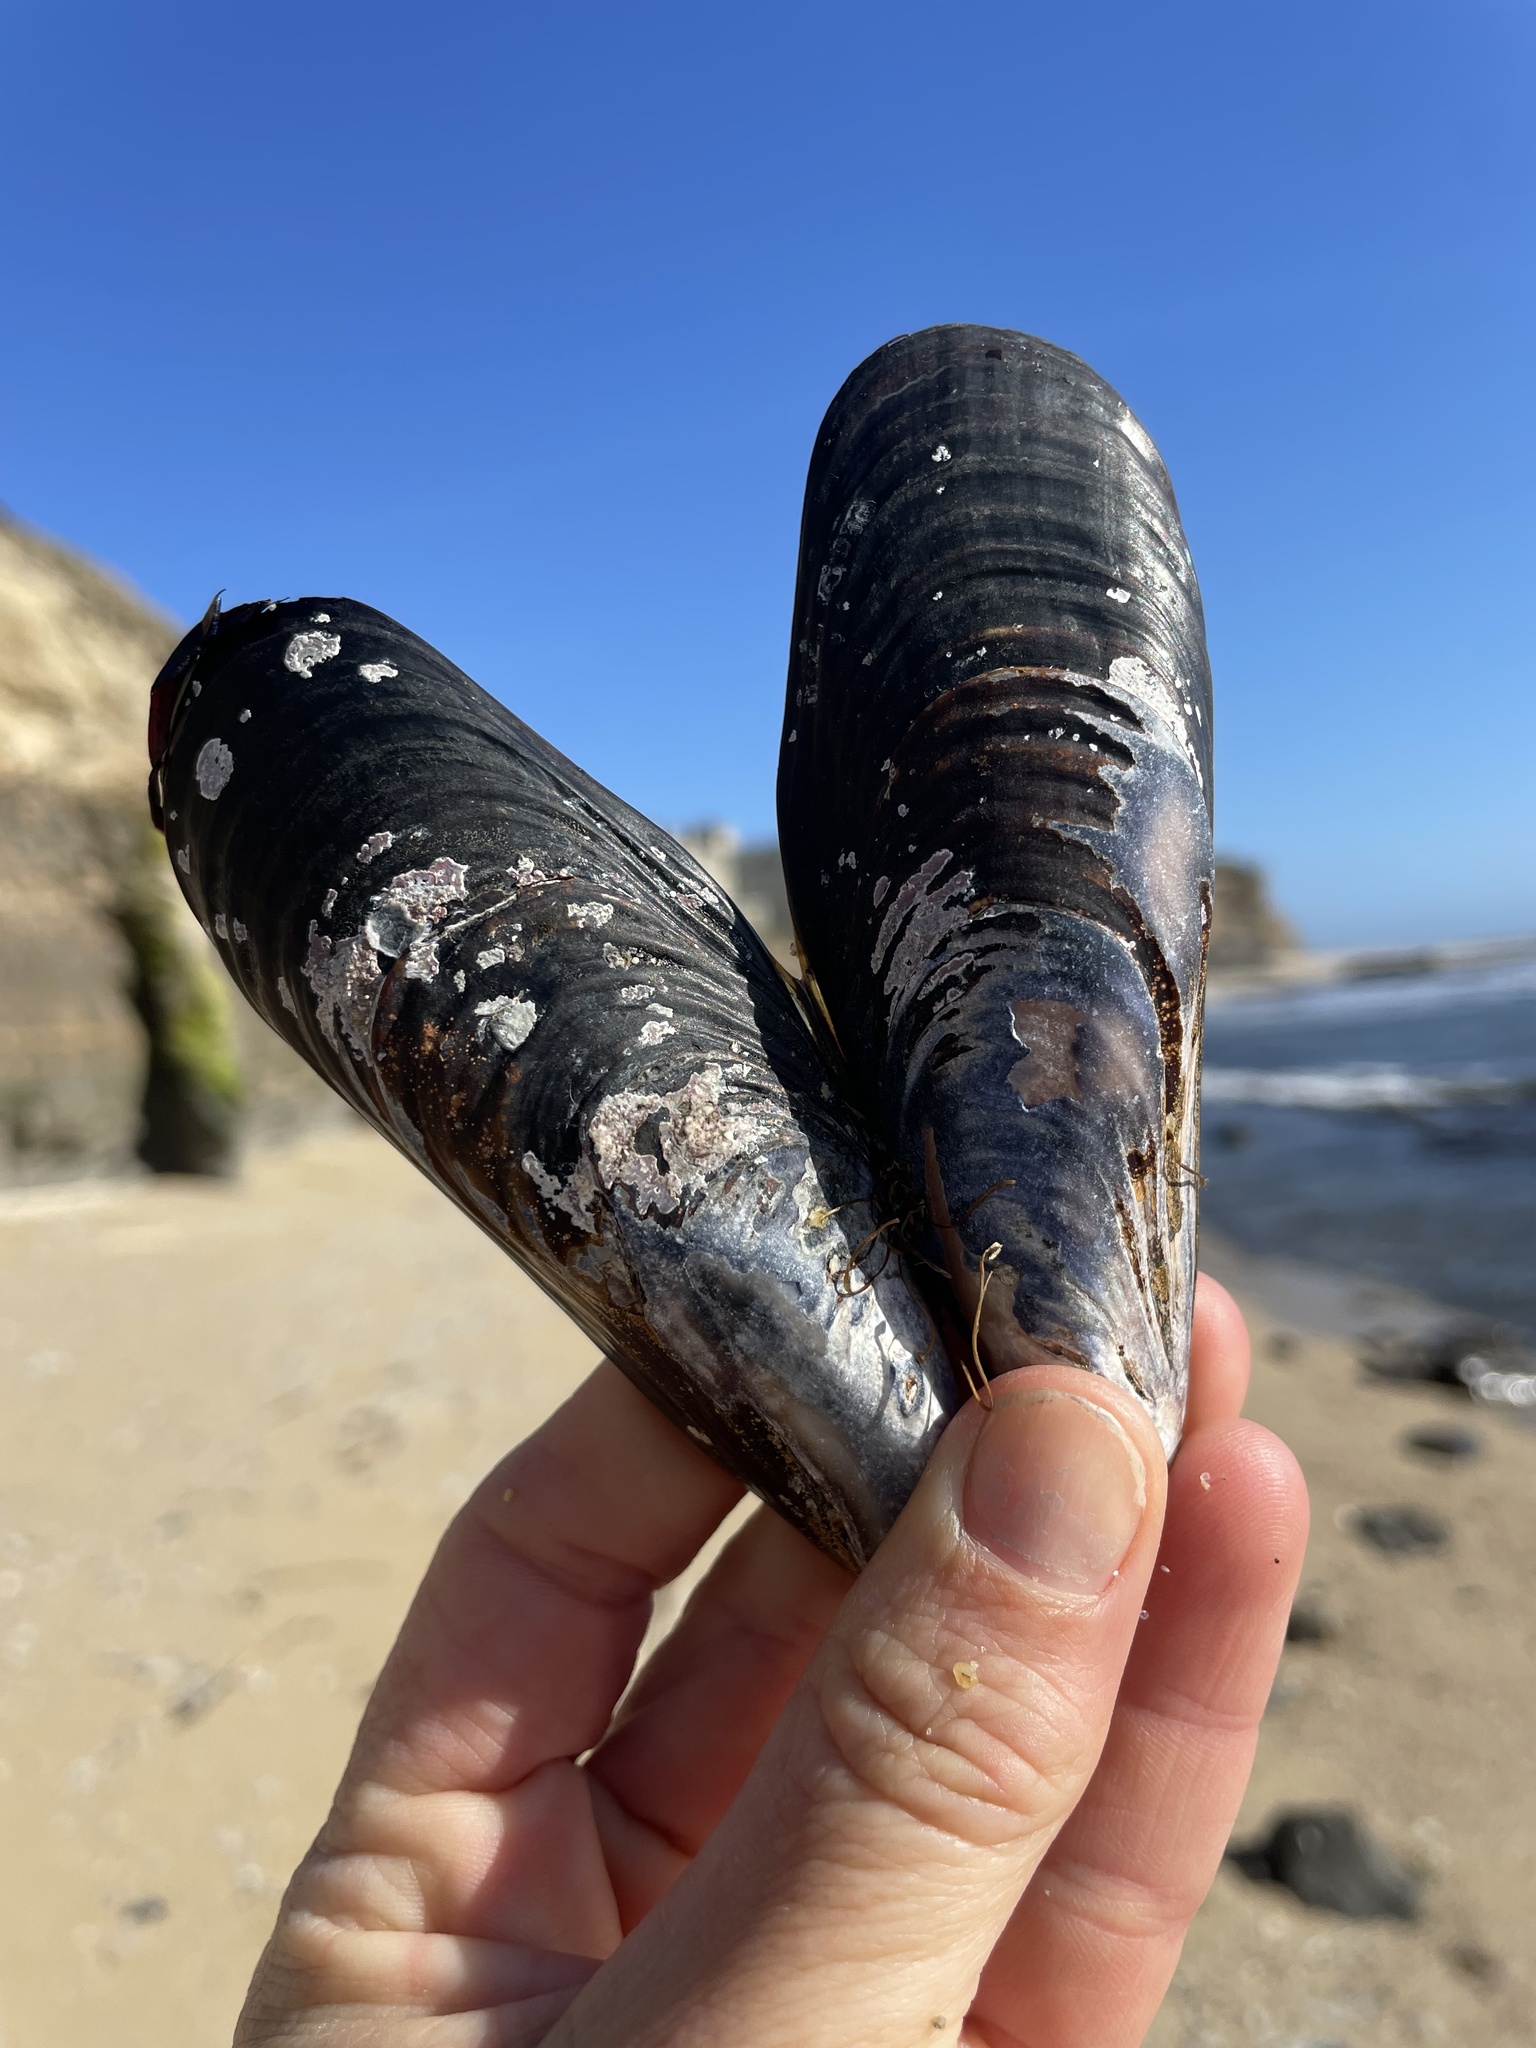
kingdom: Animalia
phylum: Mollusca
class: Bivalvia
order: Mytilida
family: Mytilidae
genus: Mytilus
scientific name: Mytilus californianus
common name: California mussel
